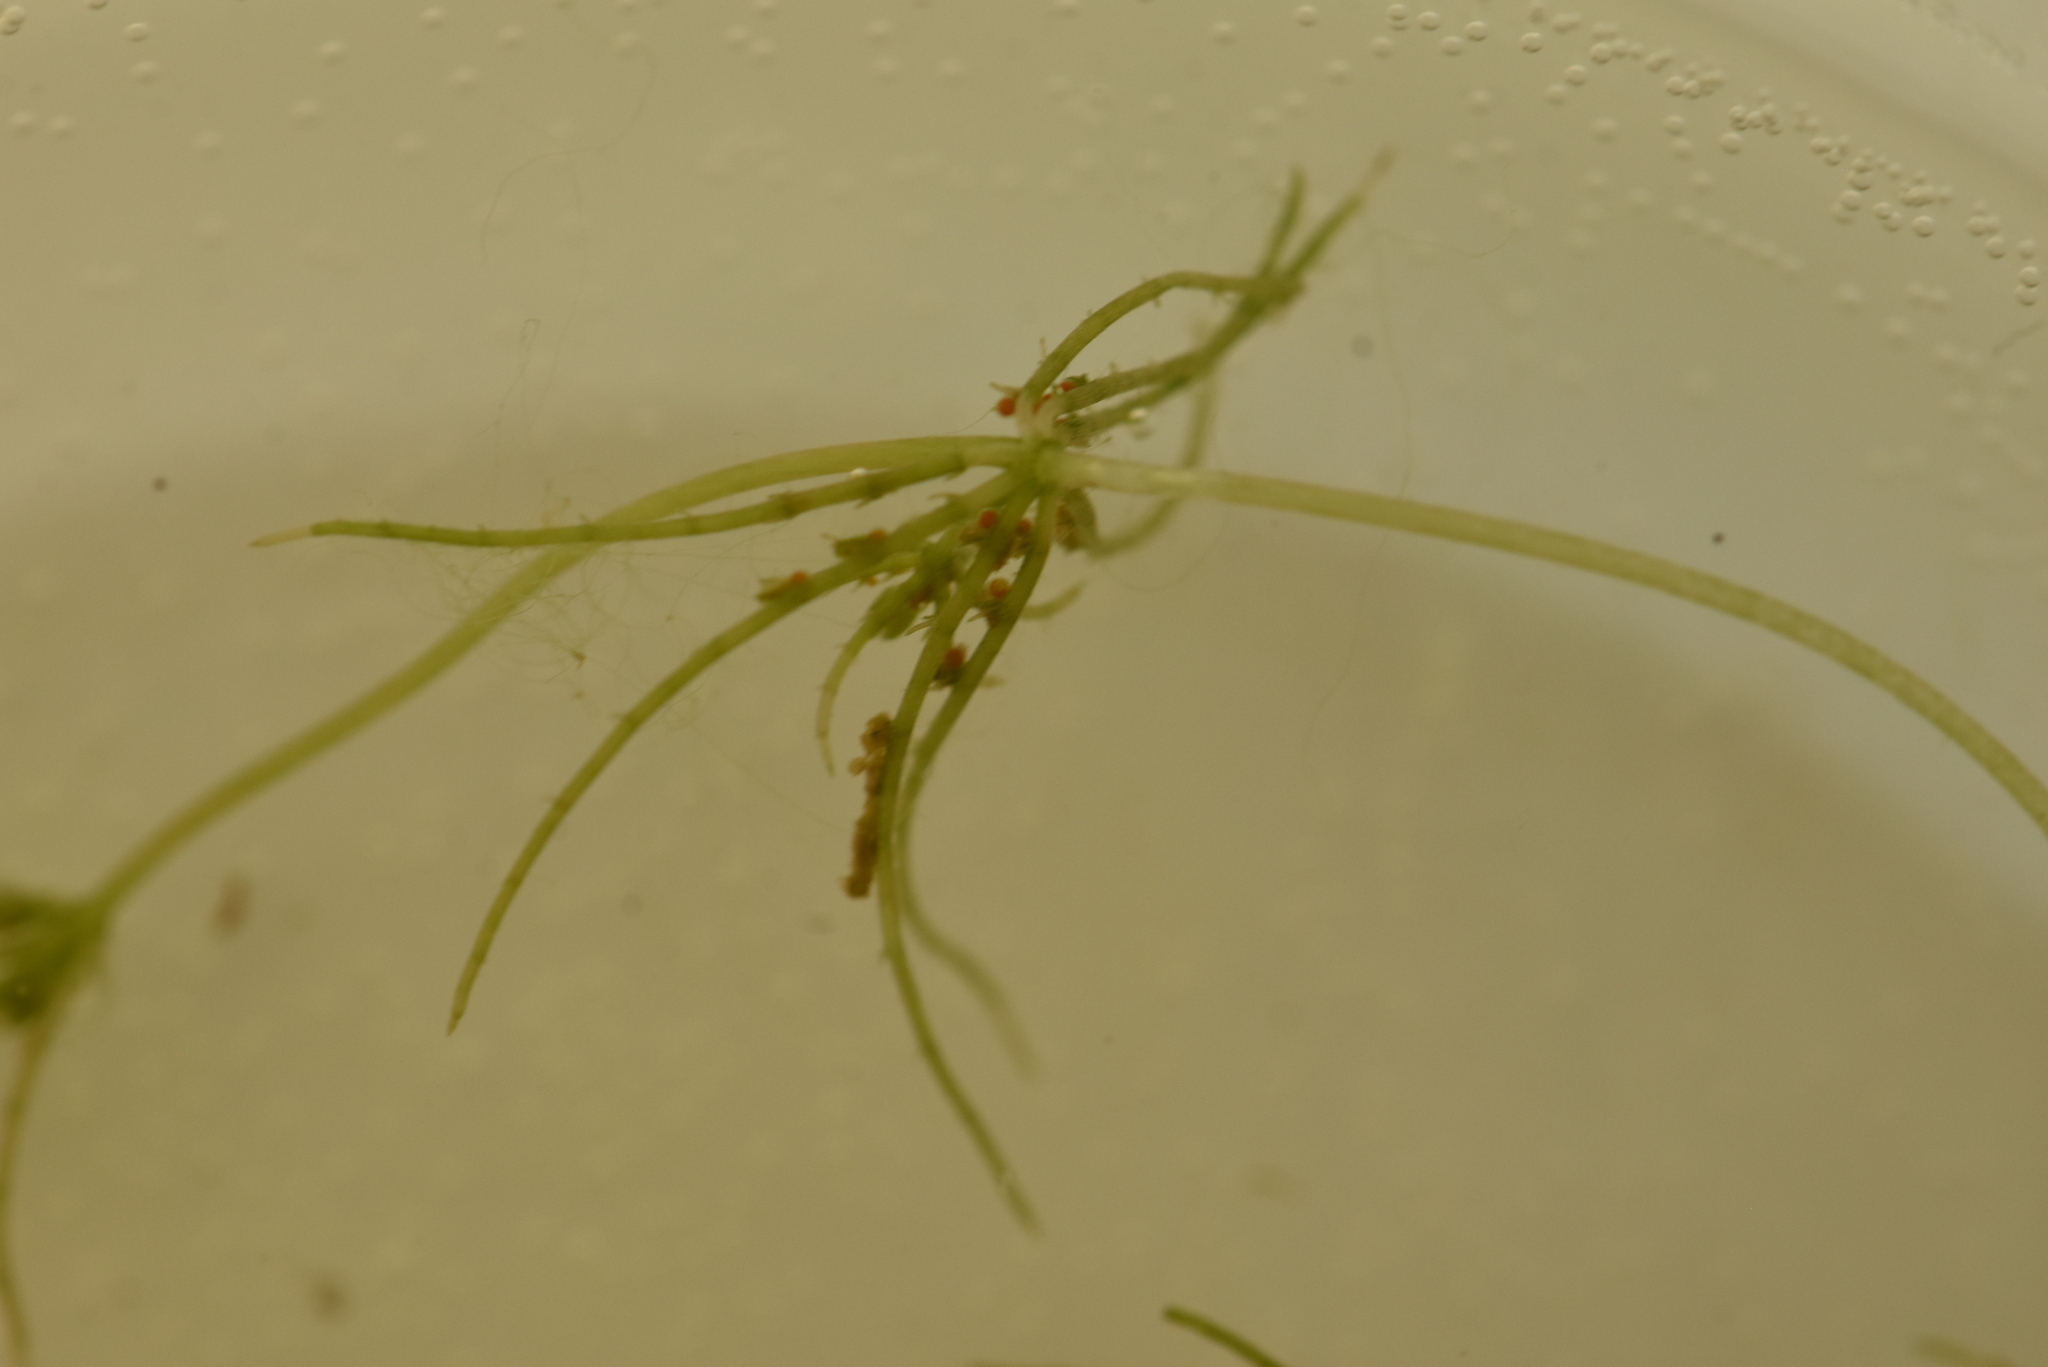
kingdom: Plantae
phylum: Charophyta
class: Charophyceae
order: Charales
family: Characeae
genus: Chara
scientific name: Chara globularis
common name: Fragile stonewort
